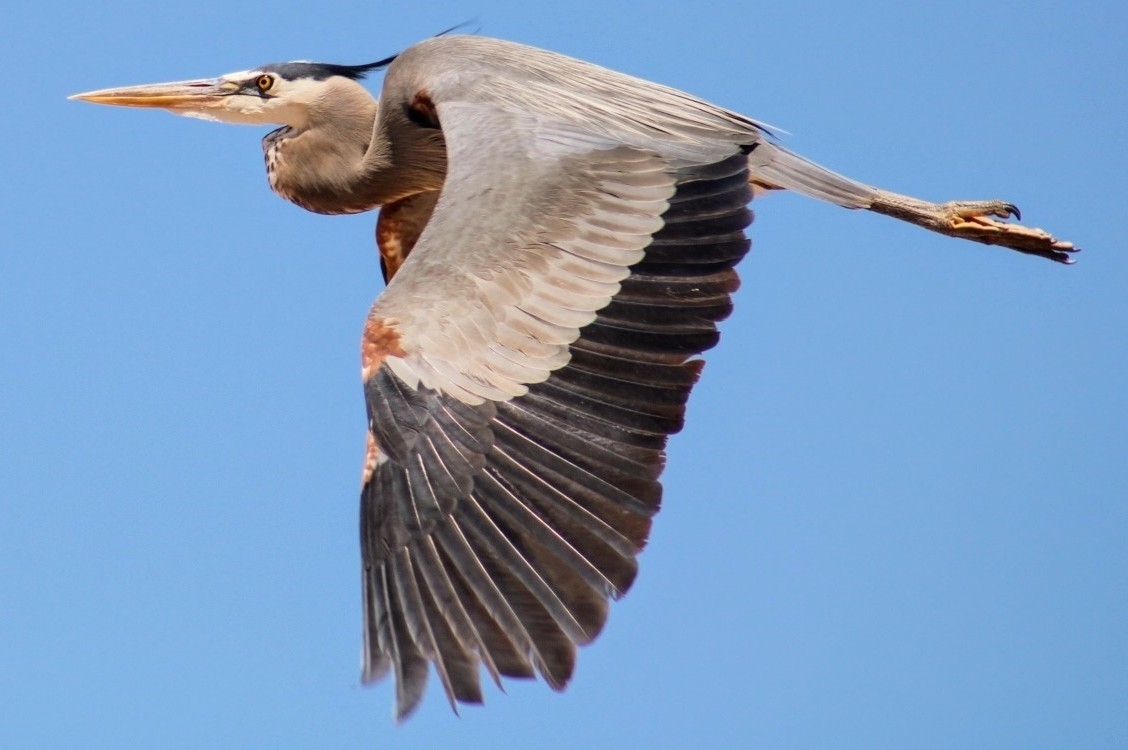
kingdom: Animalia
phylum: Chordata
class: Aves
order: Pelecaniformes
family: Ardeidae
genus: Ardea
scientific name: Ardea herodias
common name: Great blue heron
